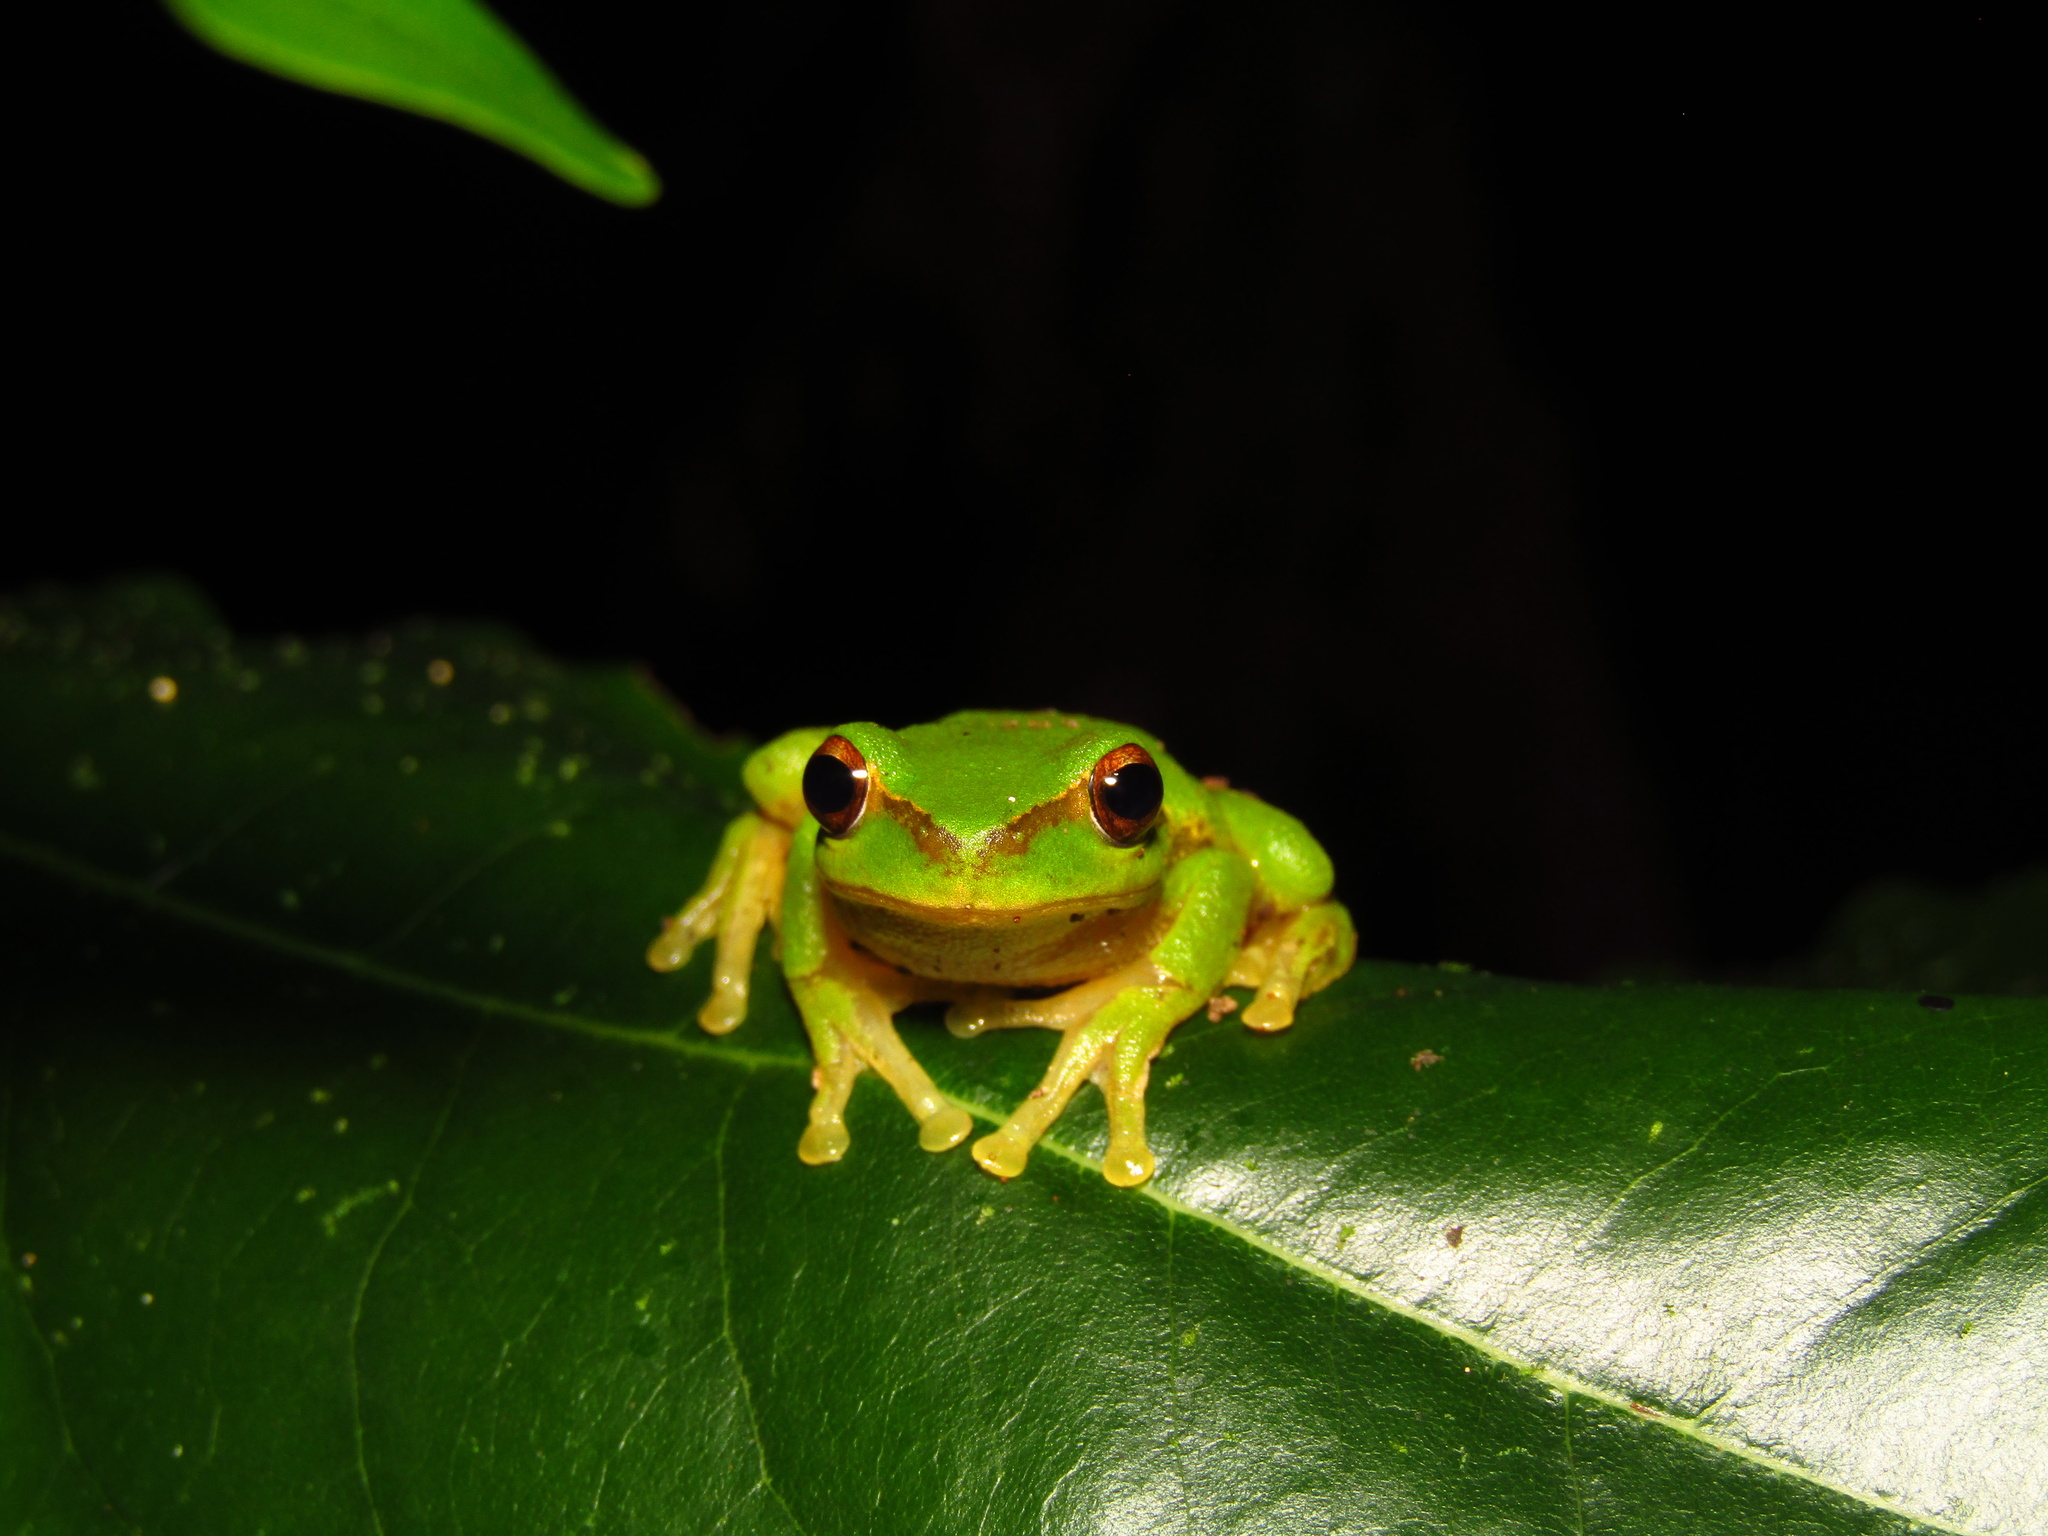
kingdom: Animalia
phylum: Chordata
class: Amphibia
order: Anura
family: Pelodryadidae
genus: Ranoidea
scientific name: Ranoidea pearsoniana
